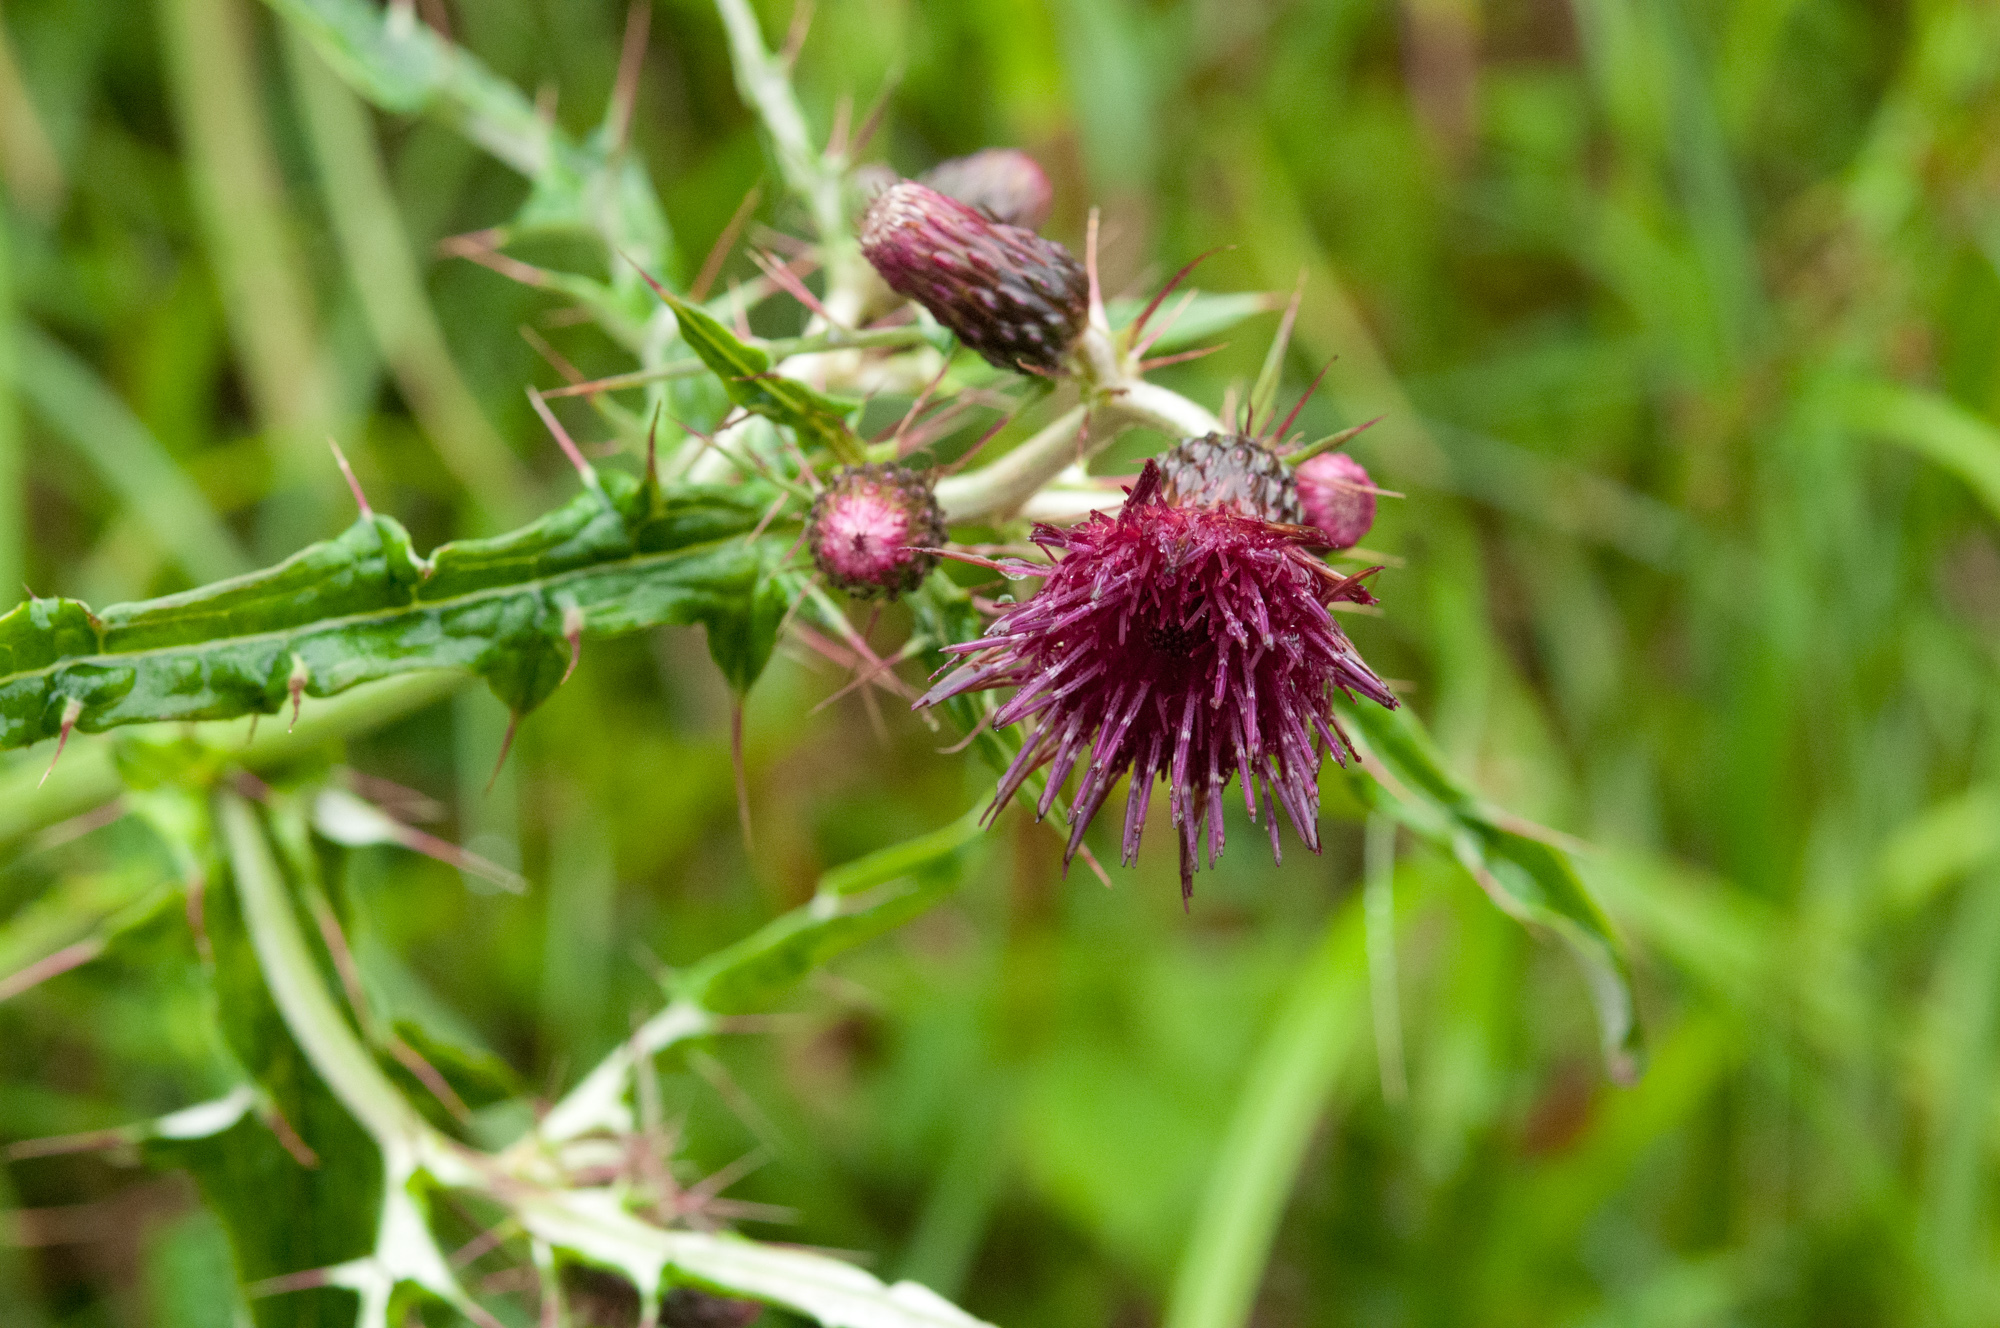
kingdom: Plantae
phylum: Tracheophyta
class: Magnoliopsida
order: Asterales
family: Asteraceae
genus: Cirsium
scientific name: Cirsium suzukii
